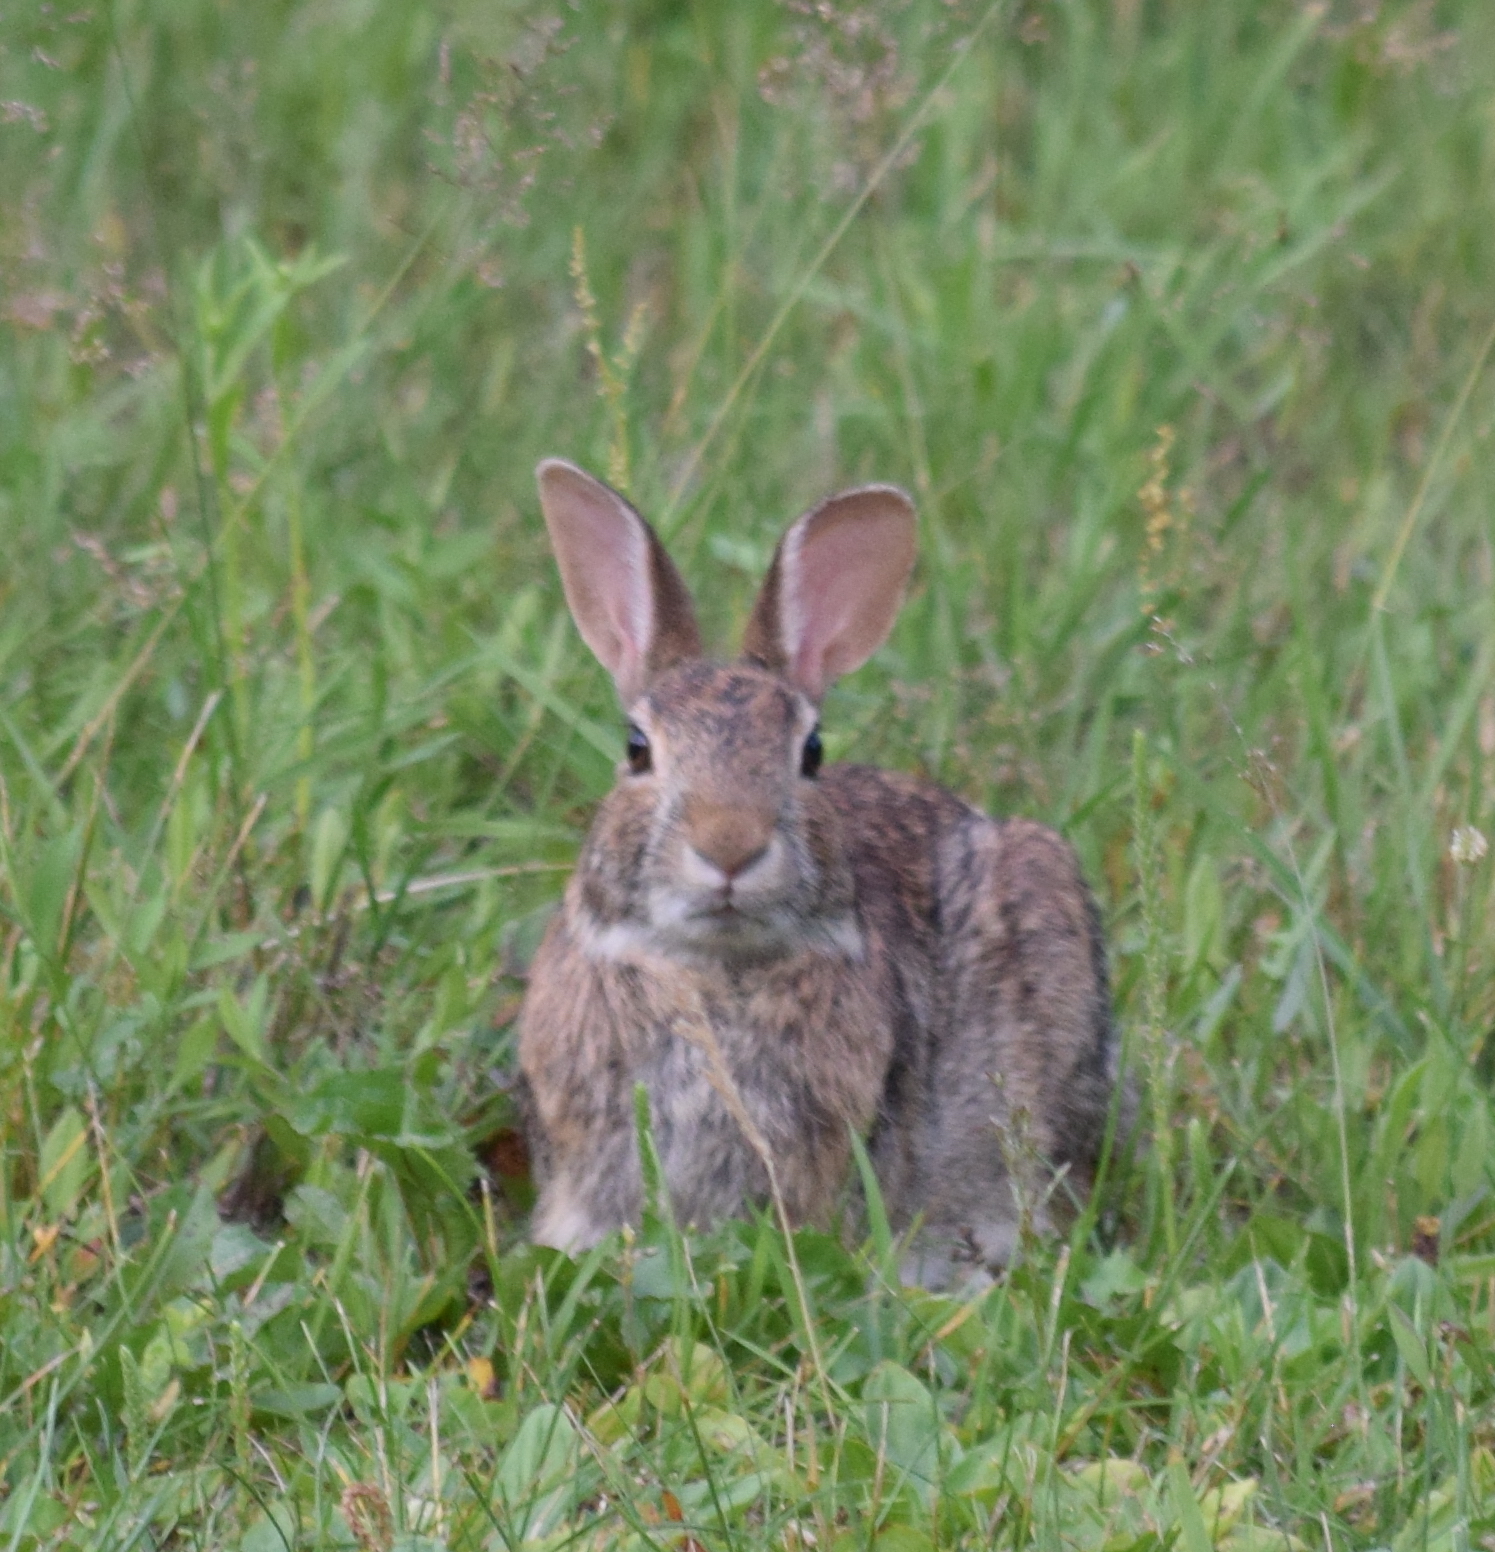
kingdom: Animalia
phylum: Chordata
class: Mammalia
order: Lagomorpha
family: Leporidae
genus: Sylvilagus
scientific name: Sylvilagus floridanus
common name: Eastern cottontail
